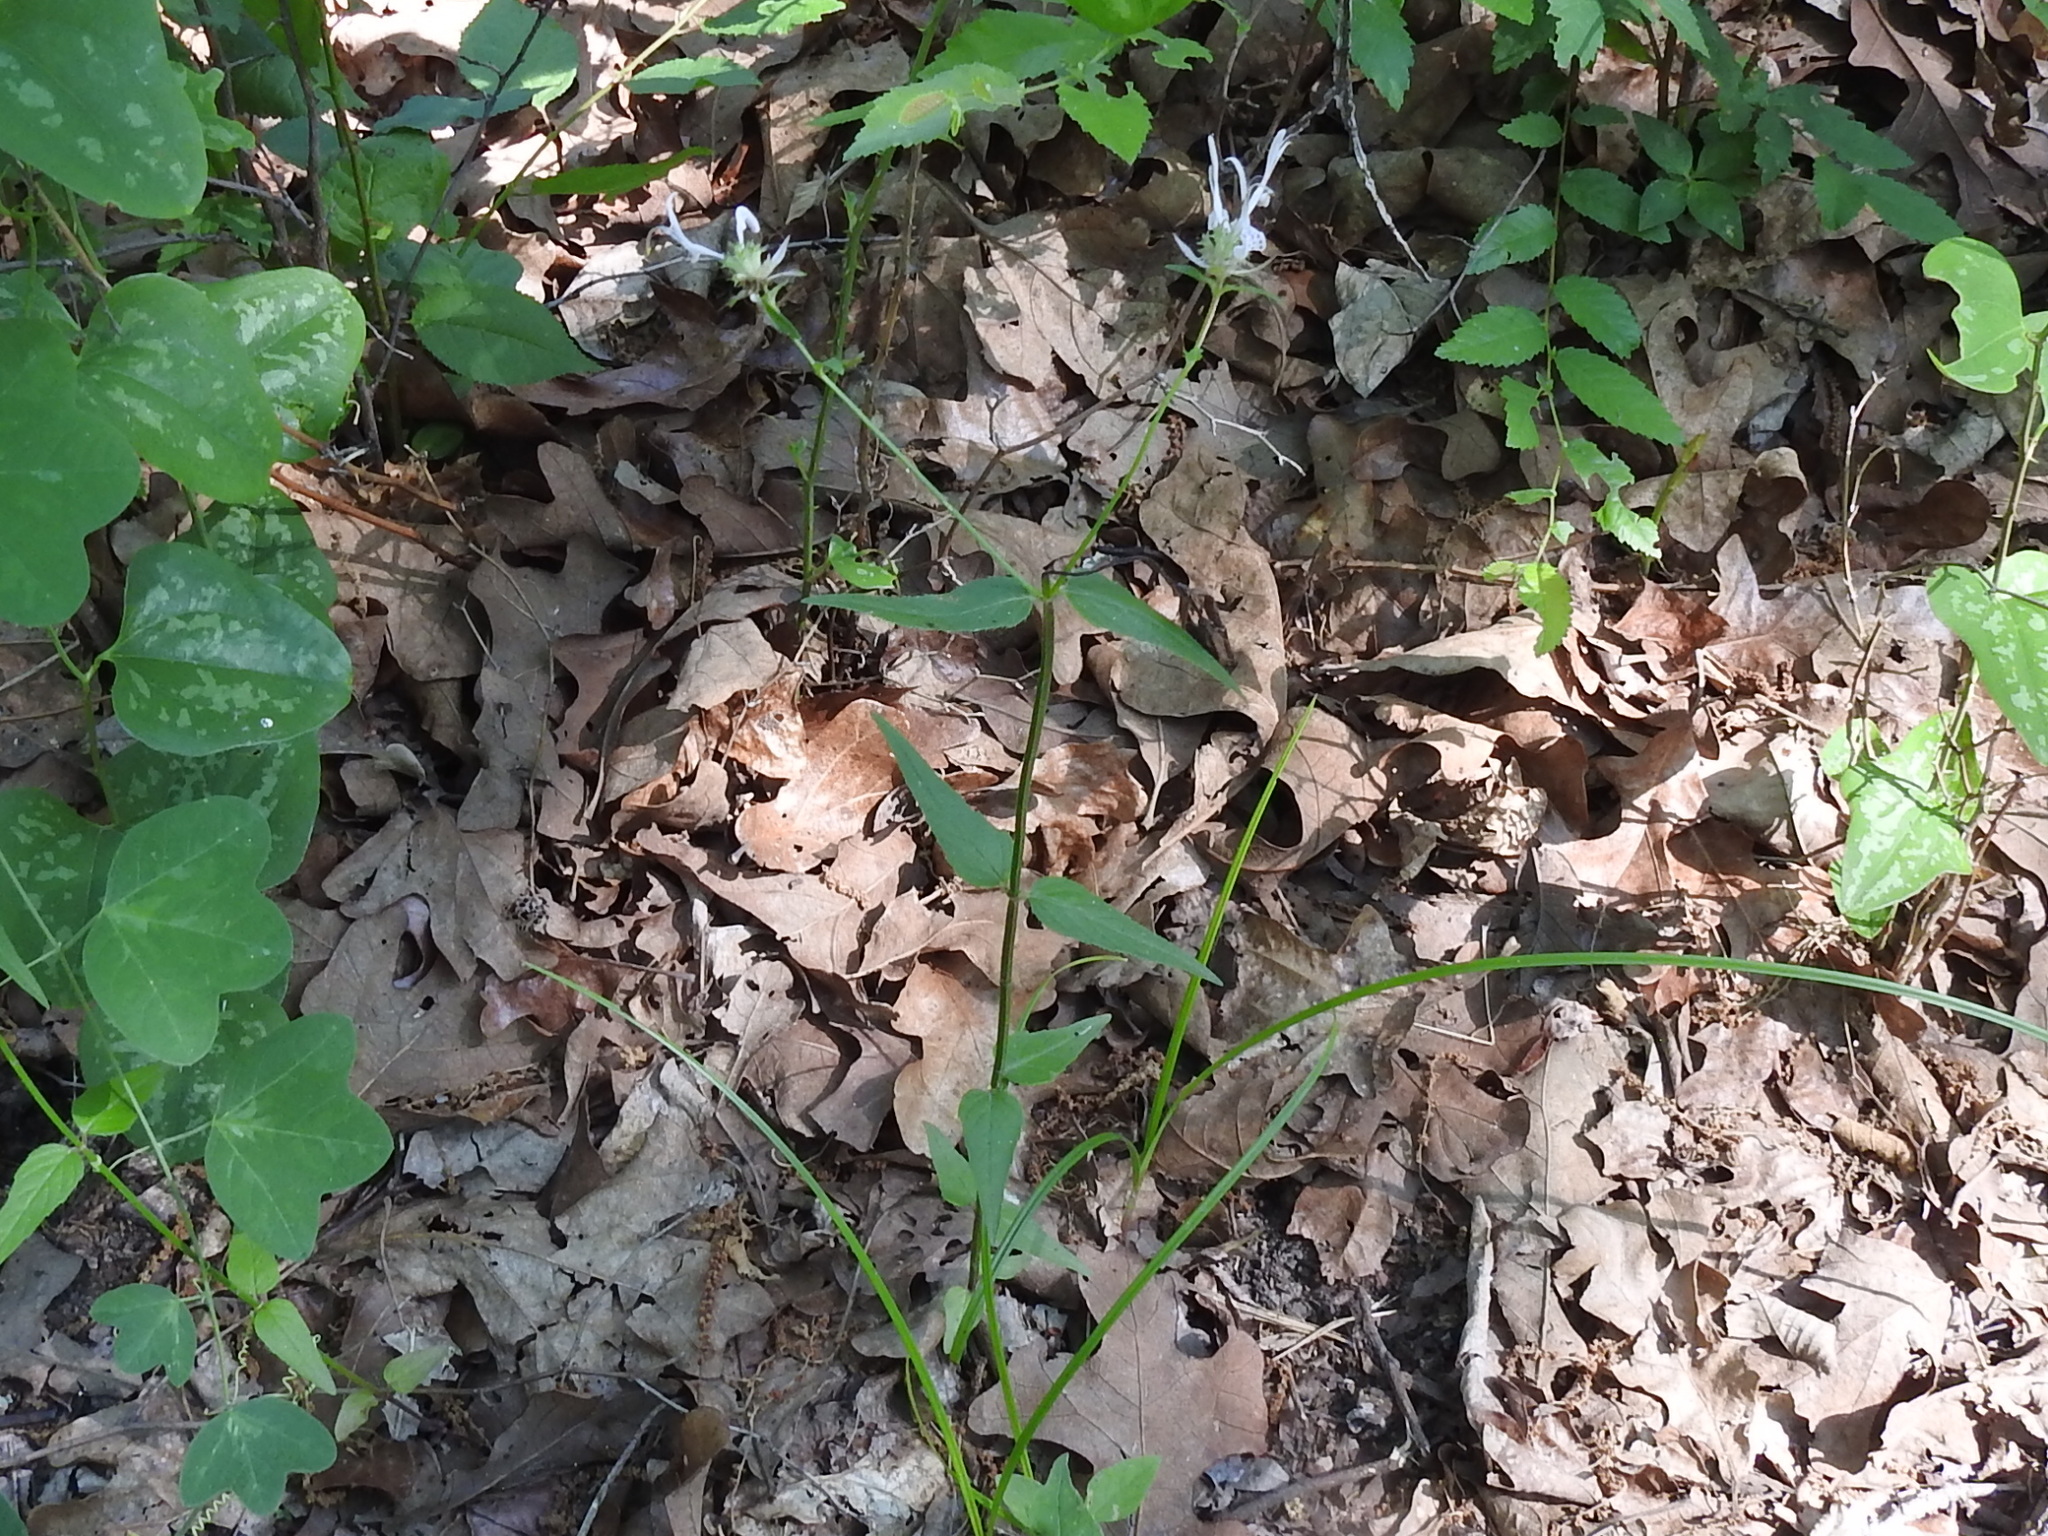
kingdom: Plantae
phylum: Tracheophyta
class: Magnoliopsida
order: Lamiales
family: Lamiaceae
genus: Monarda
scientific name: Monarda russeliana
